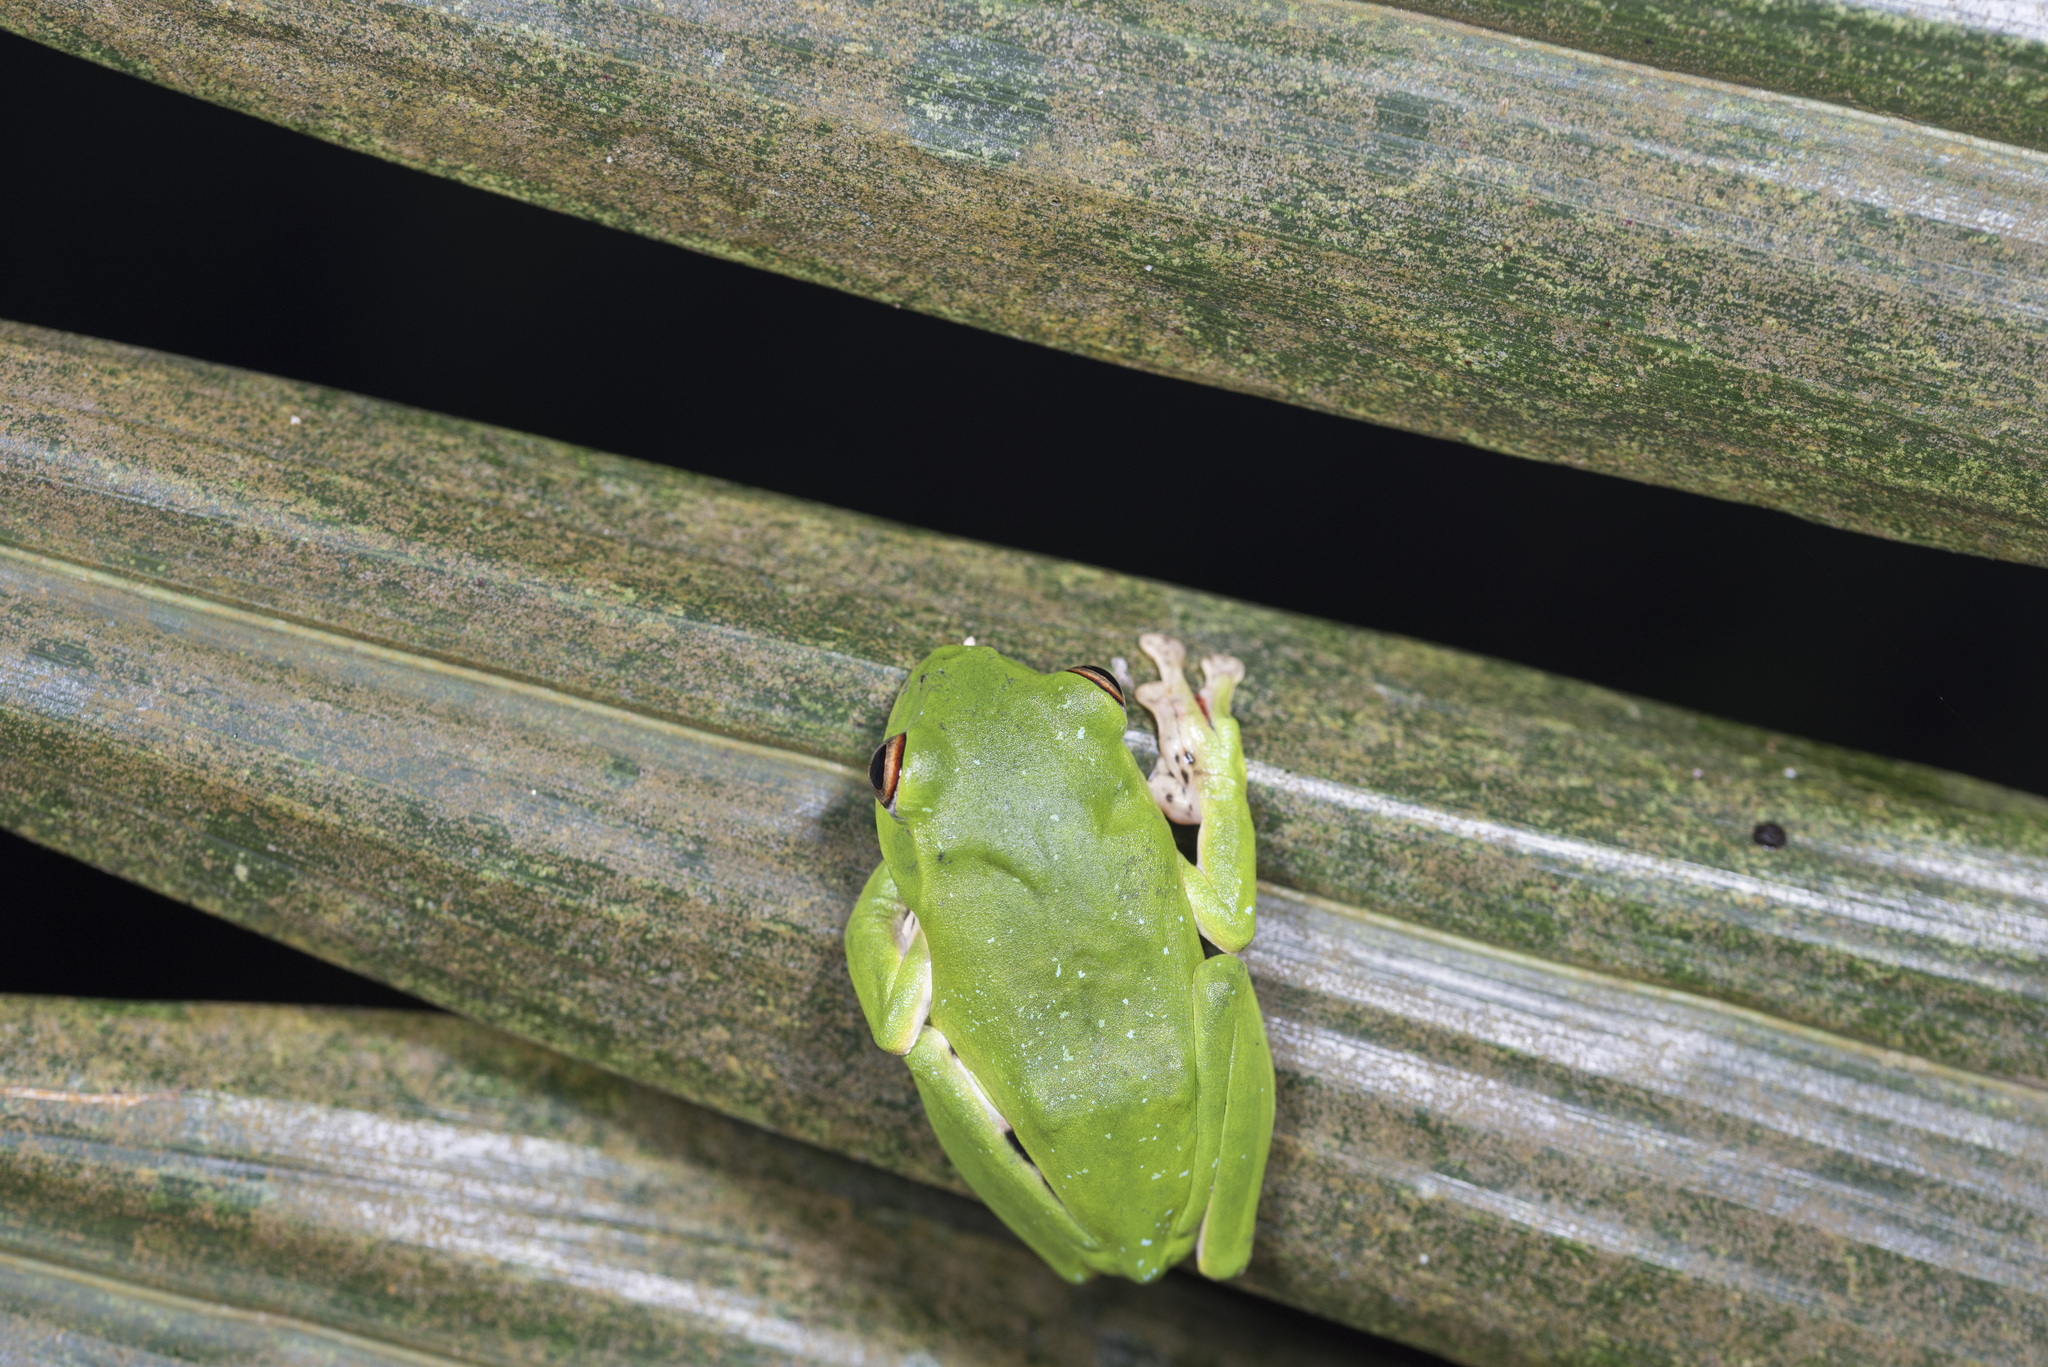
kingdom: Animalia
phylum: Chordata
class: Amphibia
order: Anura
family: Rhacophoridae
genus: Zhangixalus
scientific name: Zhangixalus moltrechti
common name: Moltrecht's treefrog
